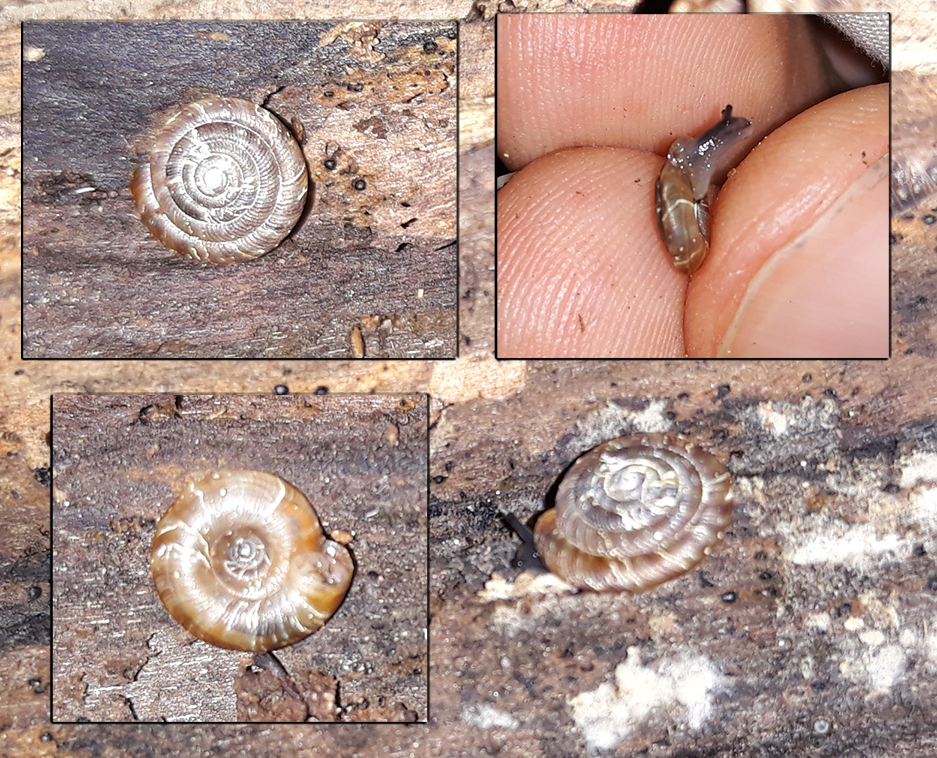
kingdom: Animalia
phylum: Mollusca
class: Gastropoda
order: Stylommatophora
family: Discidae
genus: Discus
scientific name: Discus rotundatus
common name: Rounded snail
